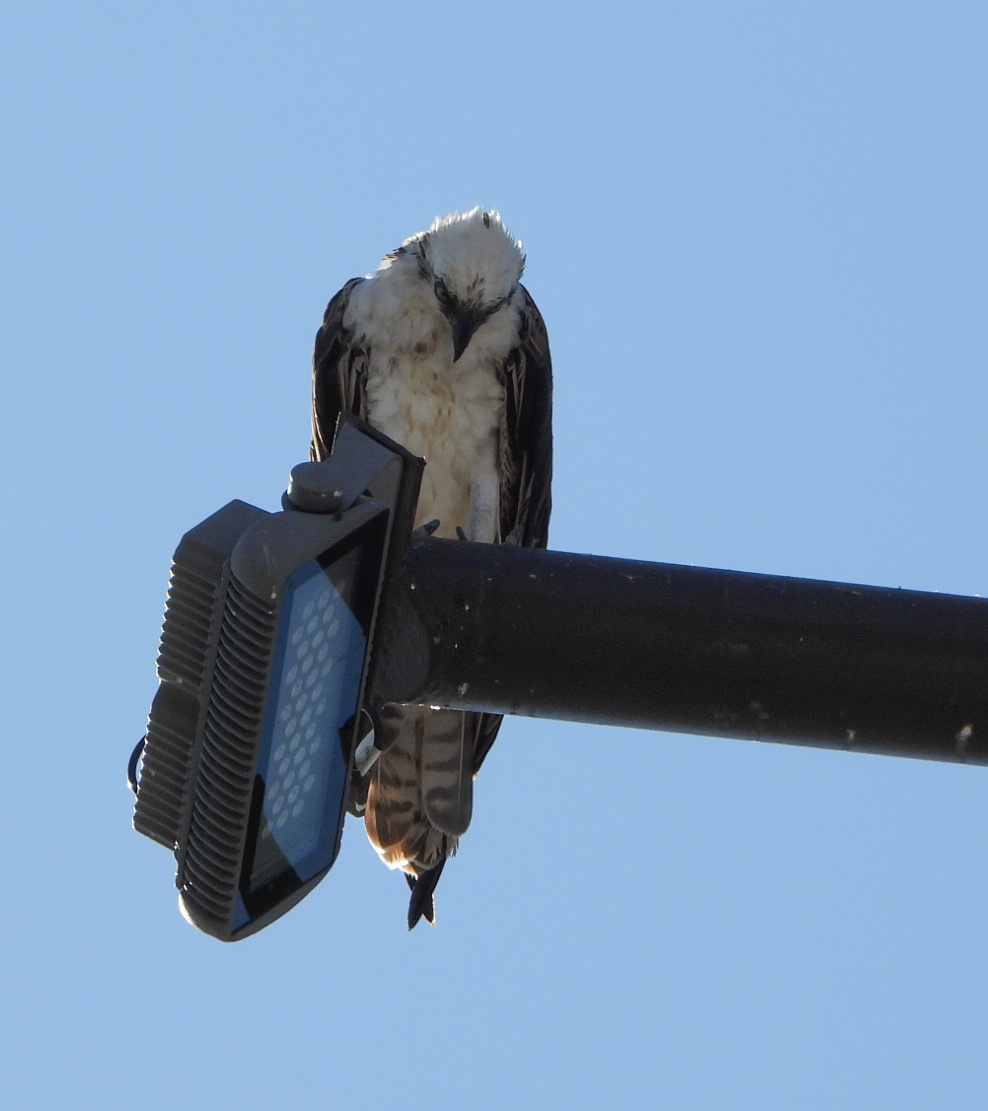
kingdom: Animalia
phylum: Chordata
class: Aves
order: Accipitriformes
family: Pandionidae
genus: Pandion
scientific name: Pandion haliaetus
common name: Osprey
